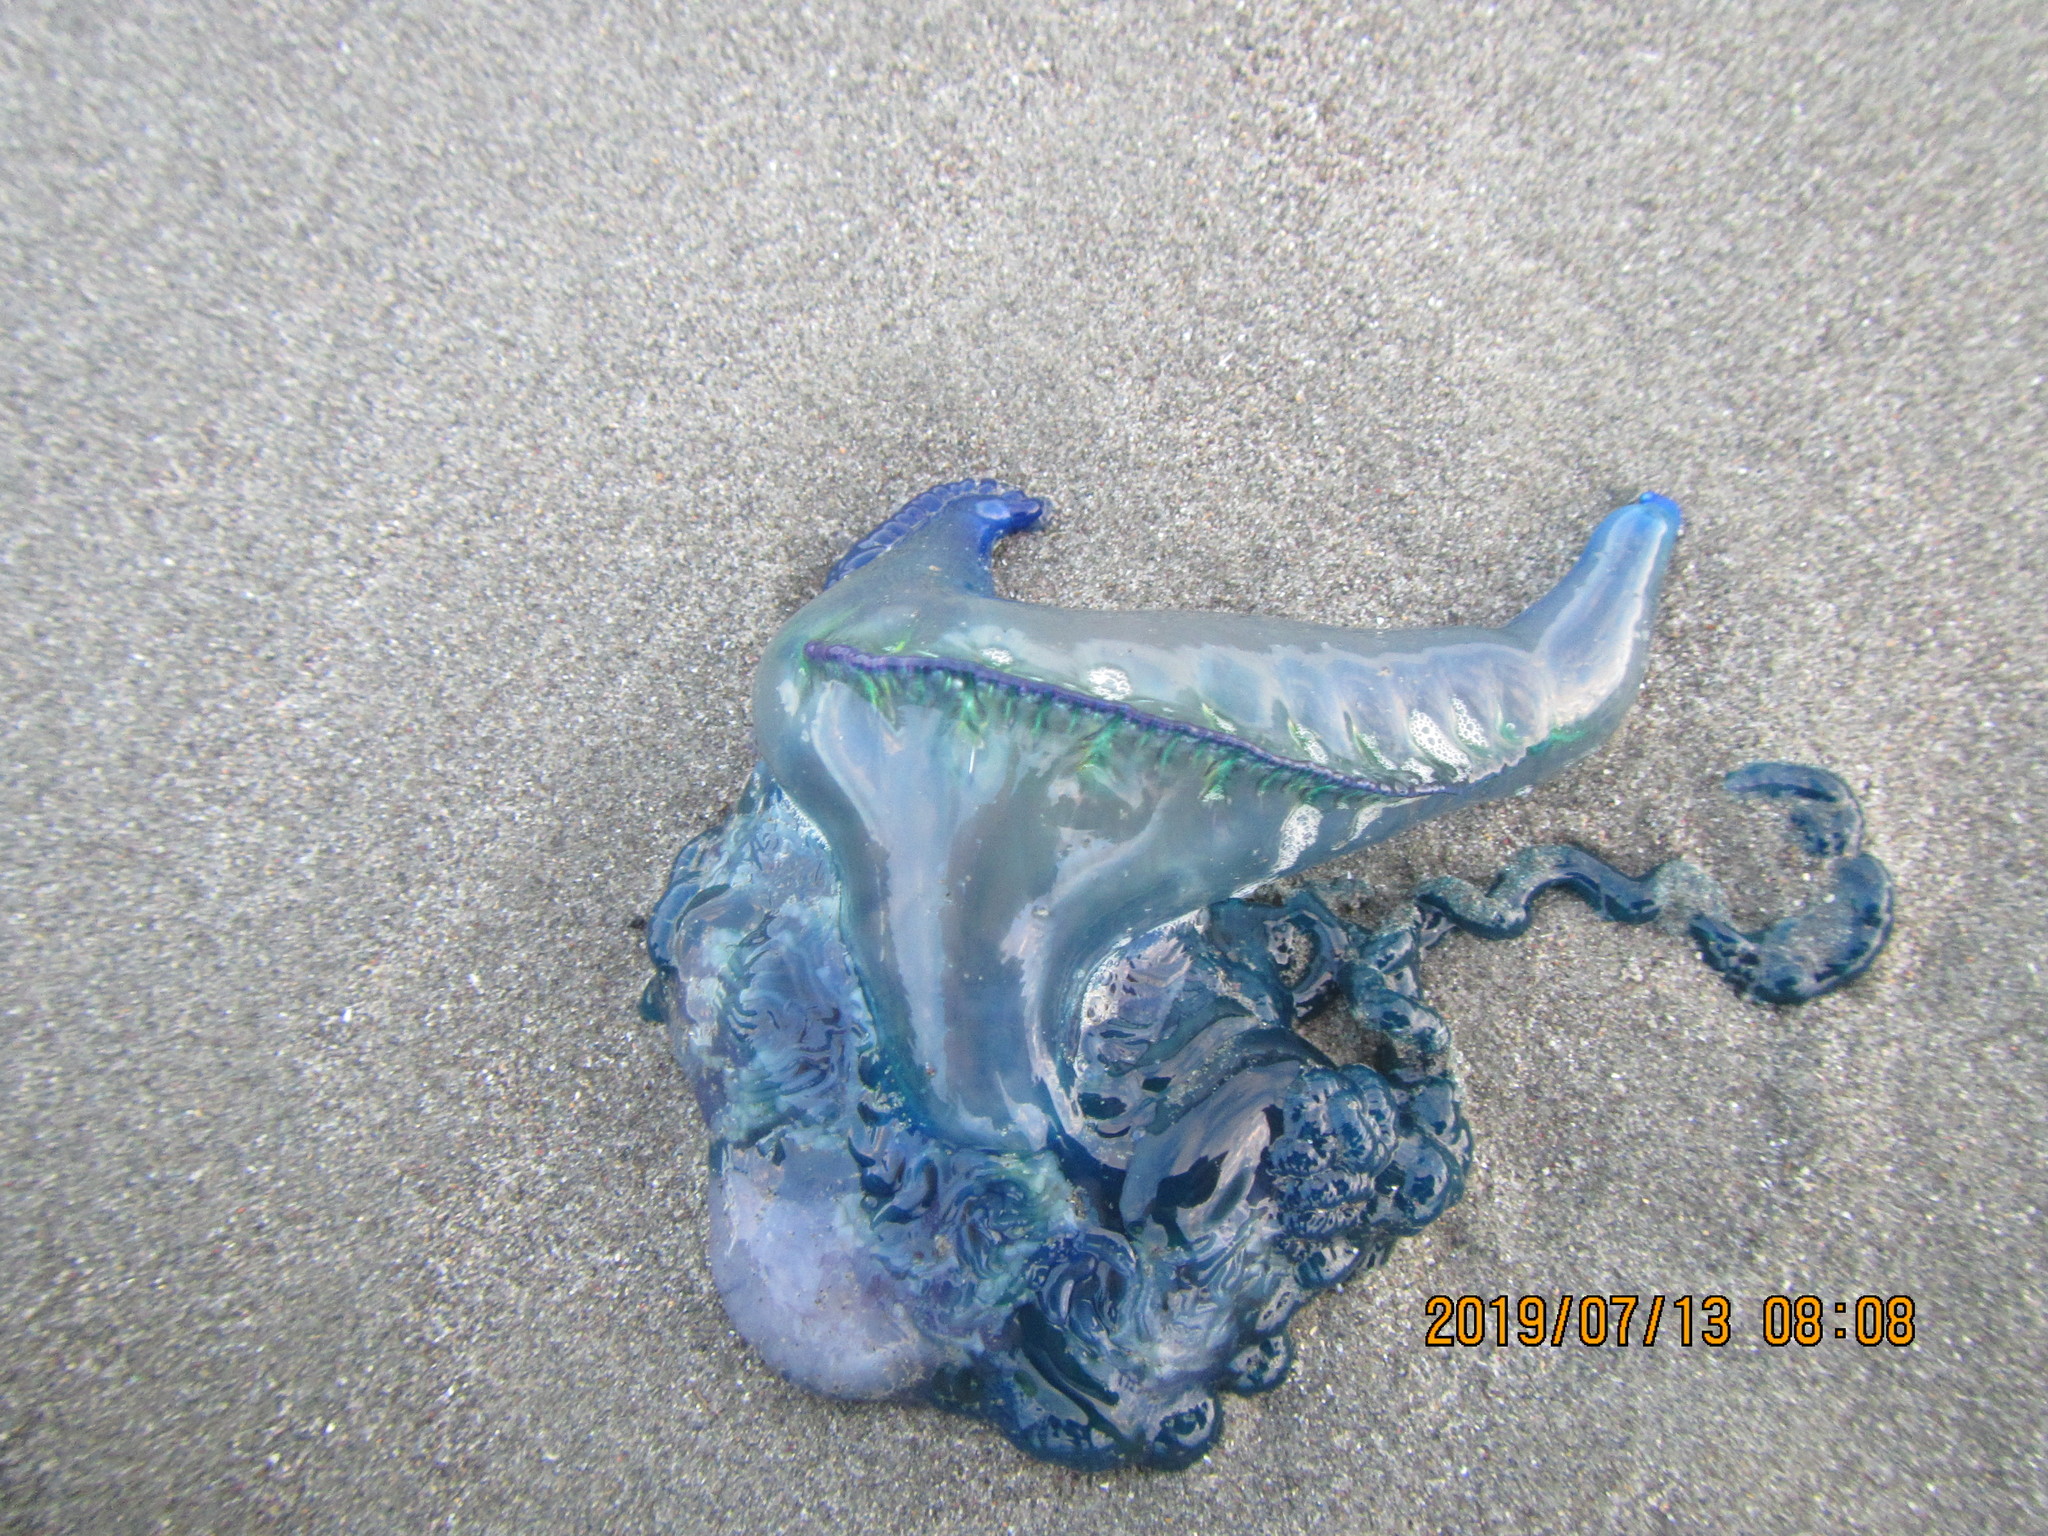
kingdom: Animalia
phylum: Cnidaria
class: Hydrozoa
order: Siphonophorae
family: Physaliidae
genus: Physalia
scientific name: Physalia physalis
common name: Portuguese man-of-war
